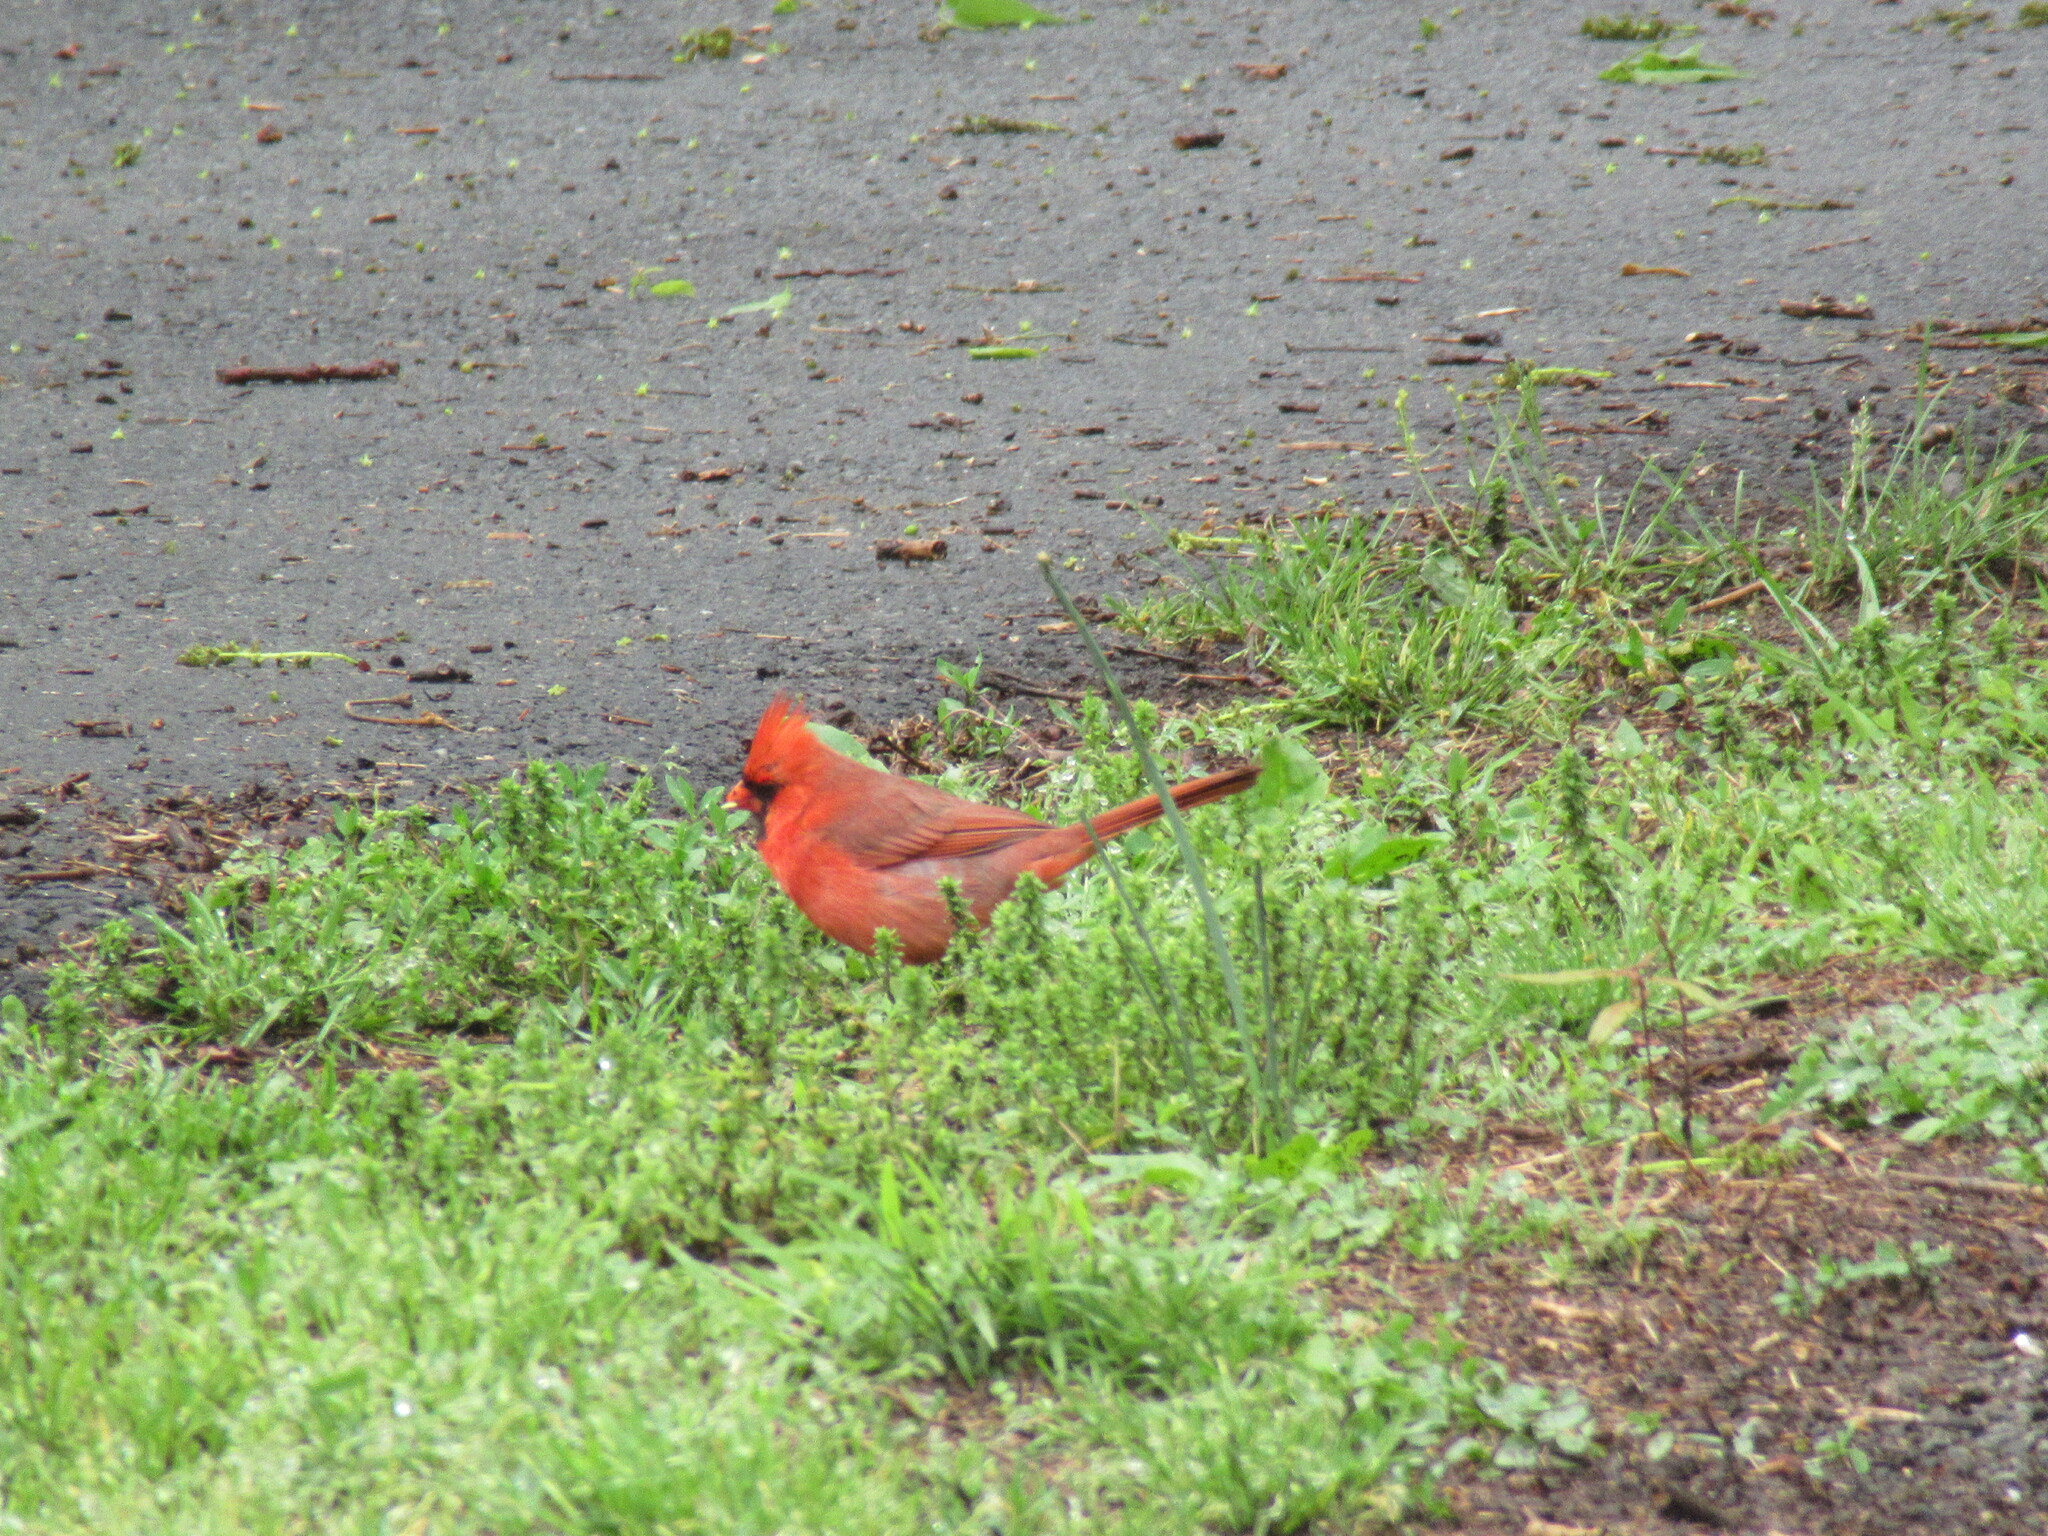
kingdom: Animalia
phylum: Chordata
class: Aves
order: Passeriformes
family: Cardinalidae
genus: Cardinalis
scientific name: Cardinalis cardinalis
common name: Northern cardinal
